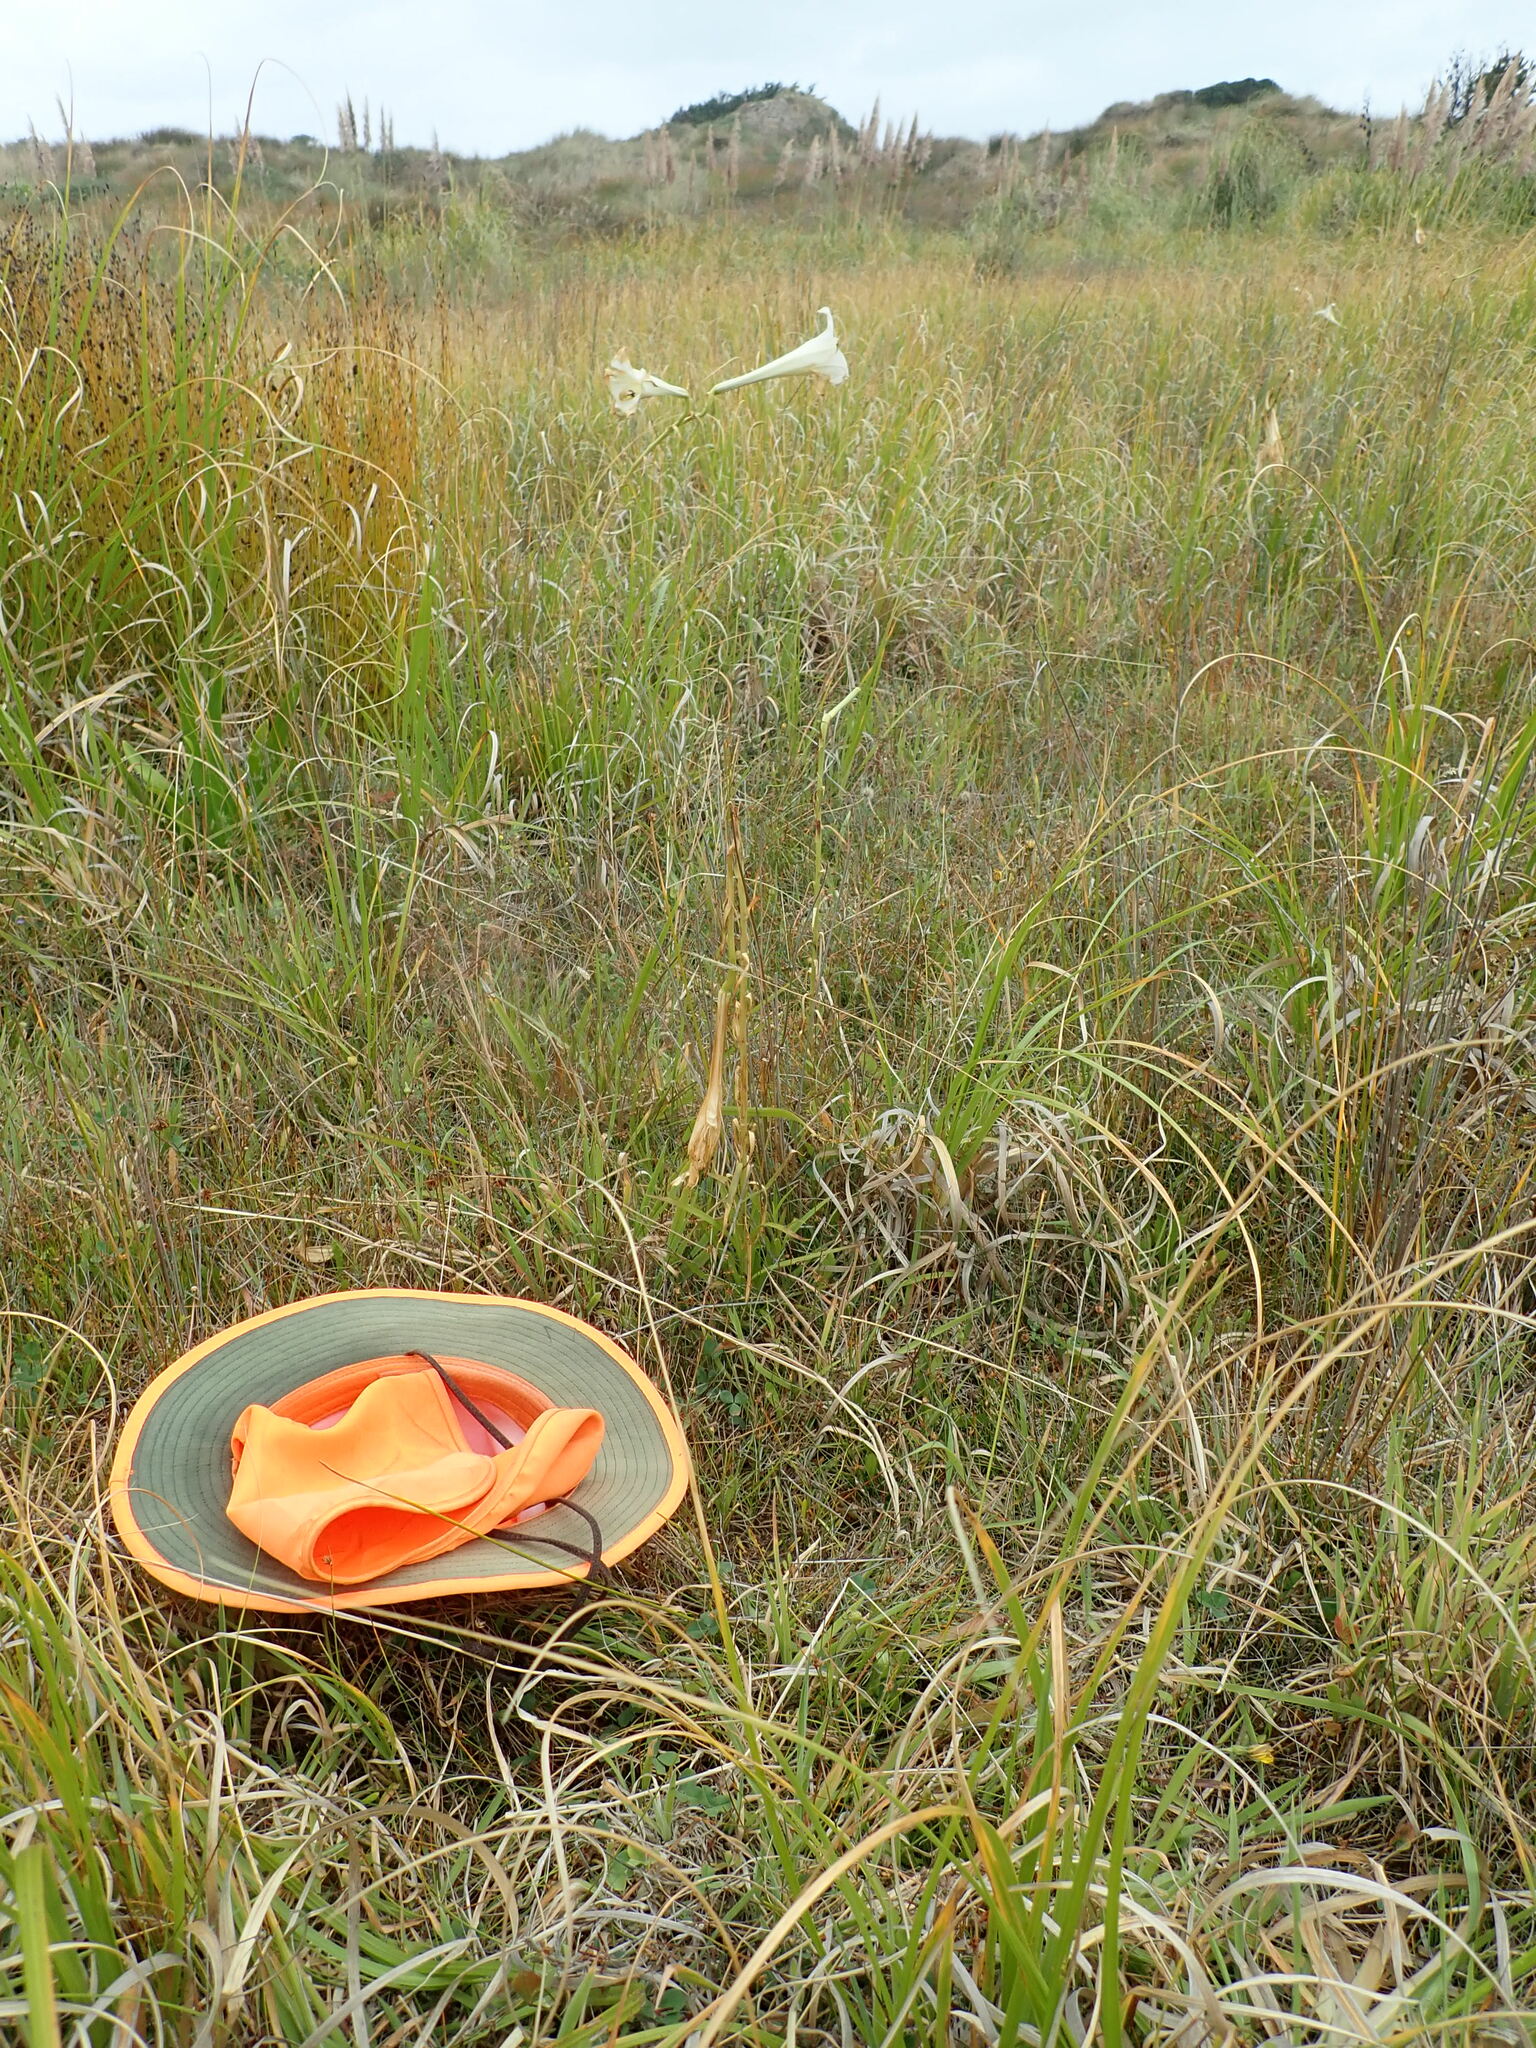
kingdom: Plantae
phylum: Tracheophyta
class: Magnoliopsida
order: Asterales
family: Goodeniaceae
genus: Goodenia
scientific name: Goodenia radicans
